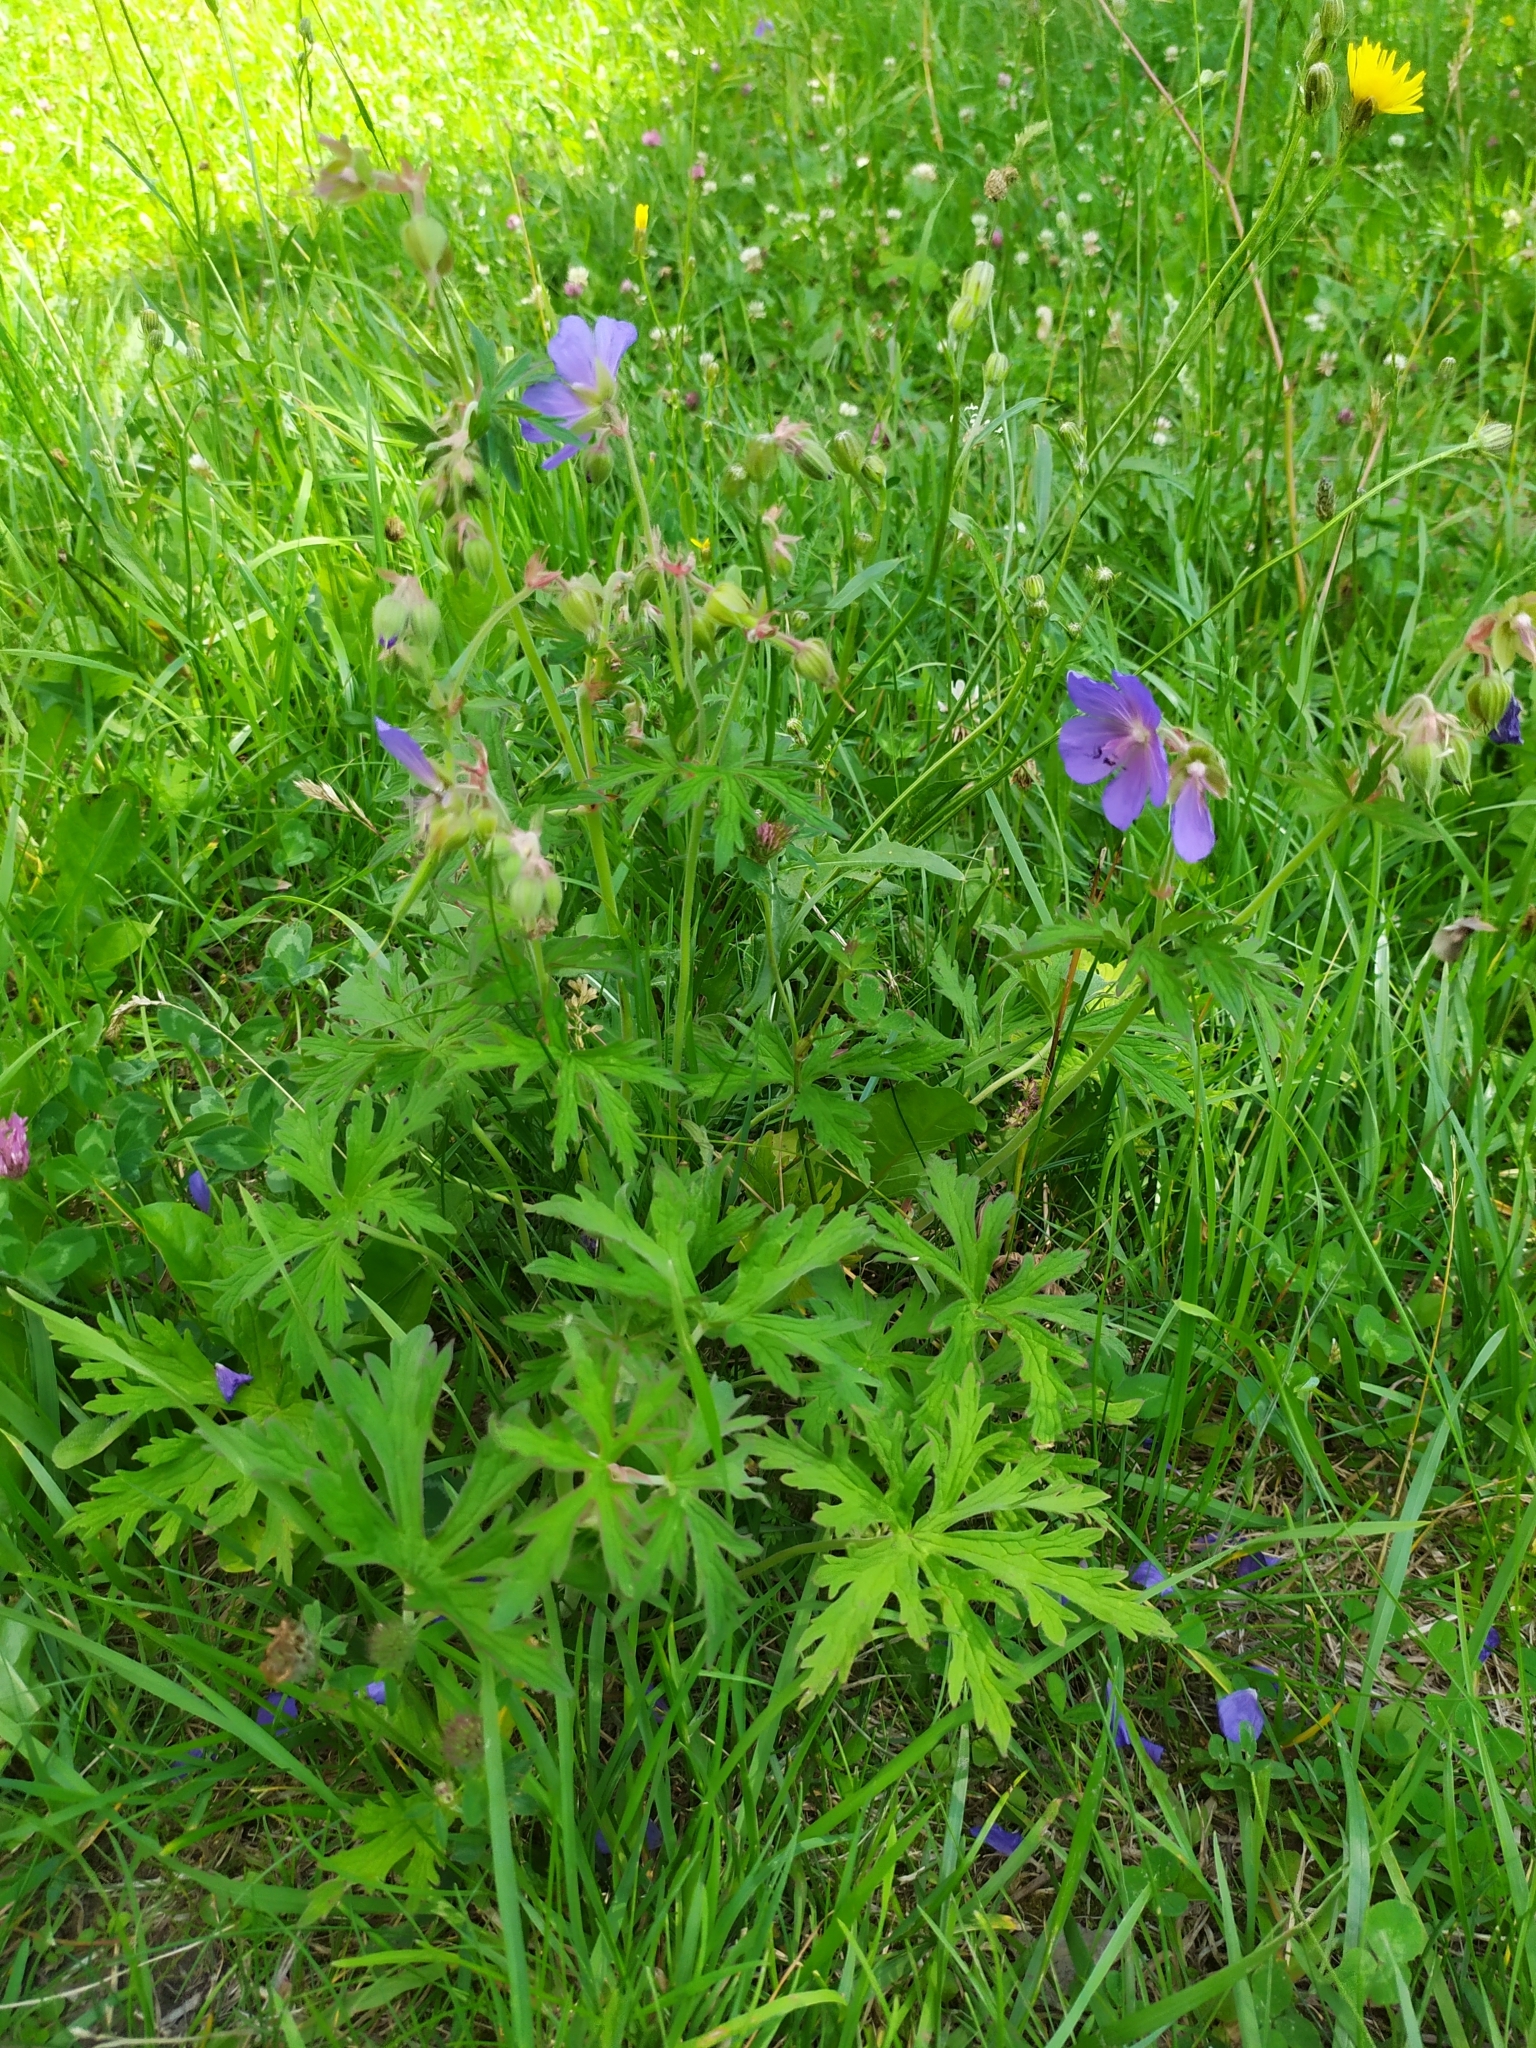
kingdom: Plantae
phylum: Tracheophyta
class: Magnoliopsida
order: Geraniales
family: Geraniaceae
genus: Geranium
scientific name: Geranium pratense
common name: Meadow crane's-bill
